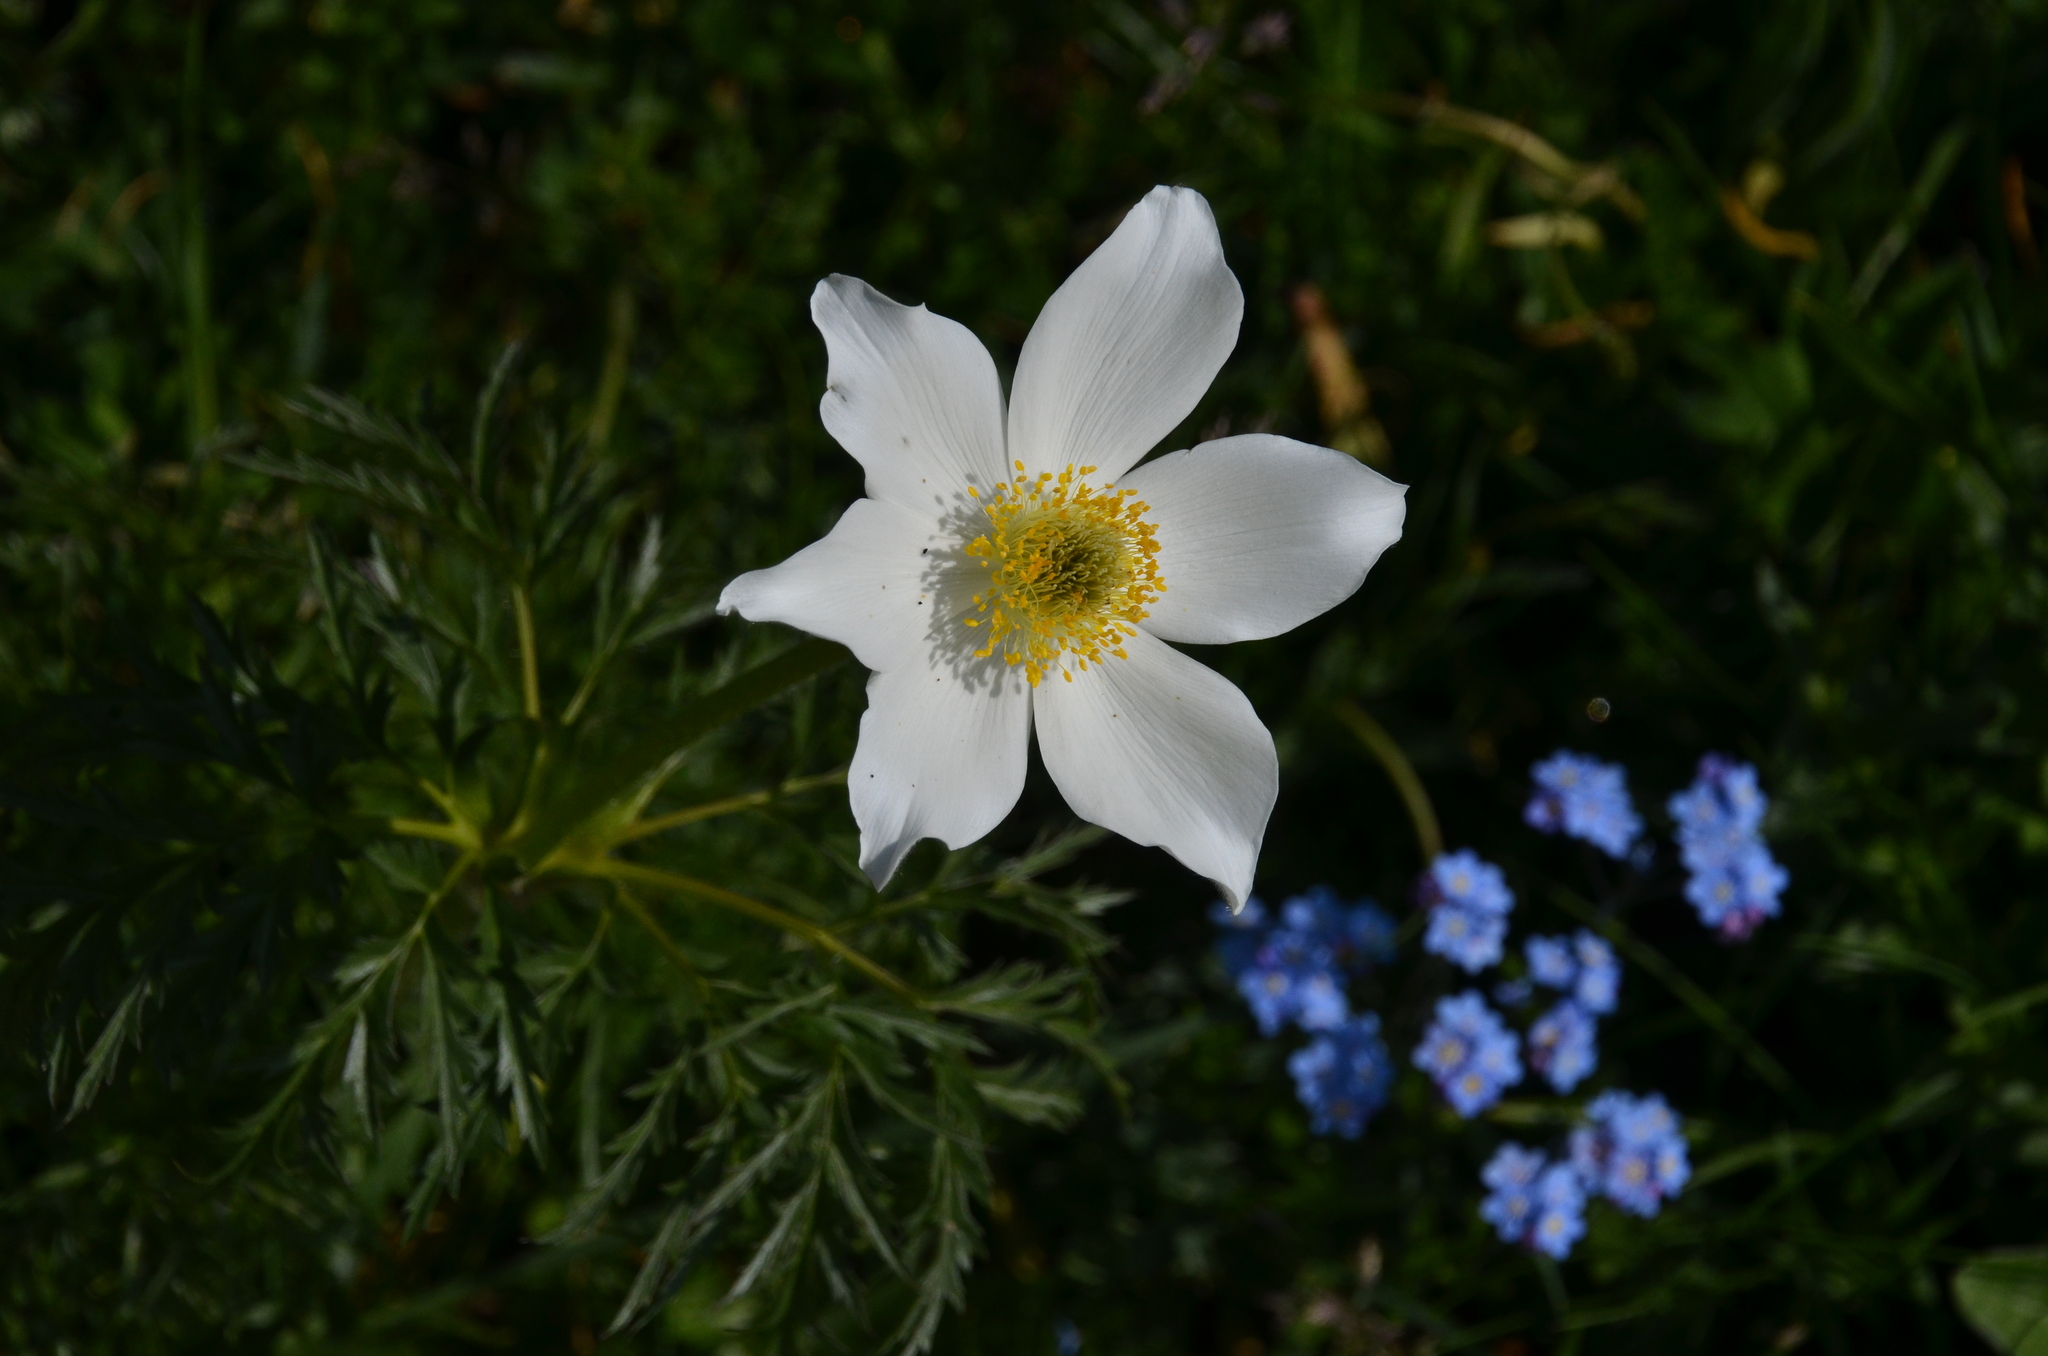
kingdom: Plantae
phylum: Tracheophyta
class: Magnoliopsida
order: Ranunculales
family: Ranunculaceae
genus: Pulsatilla
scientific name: Pulsatilla alpina
